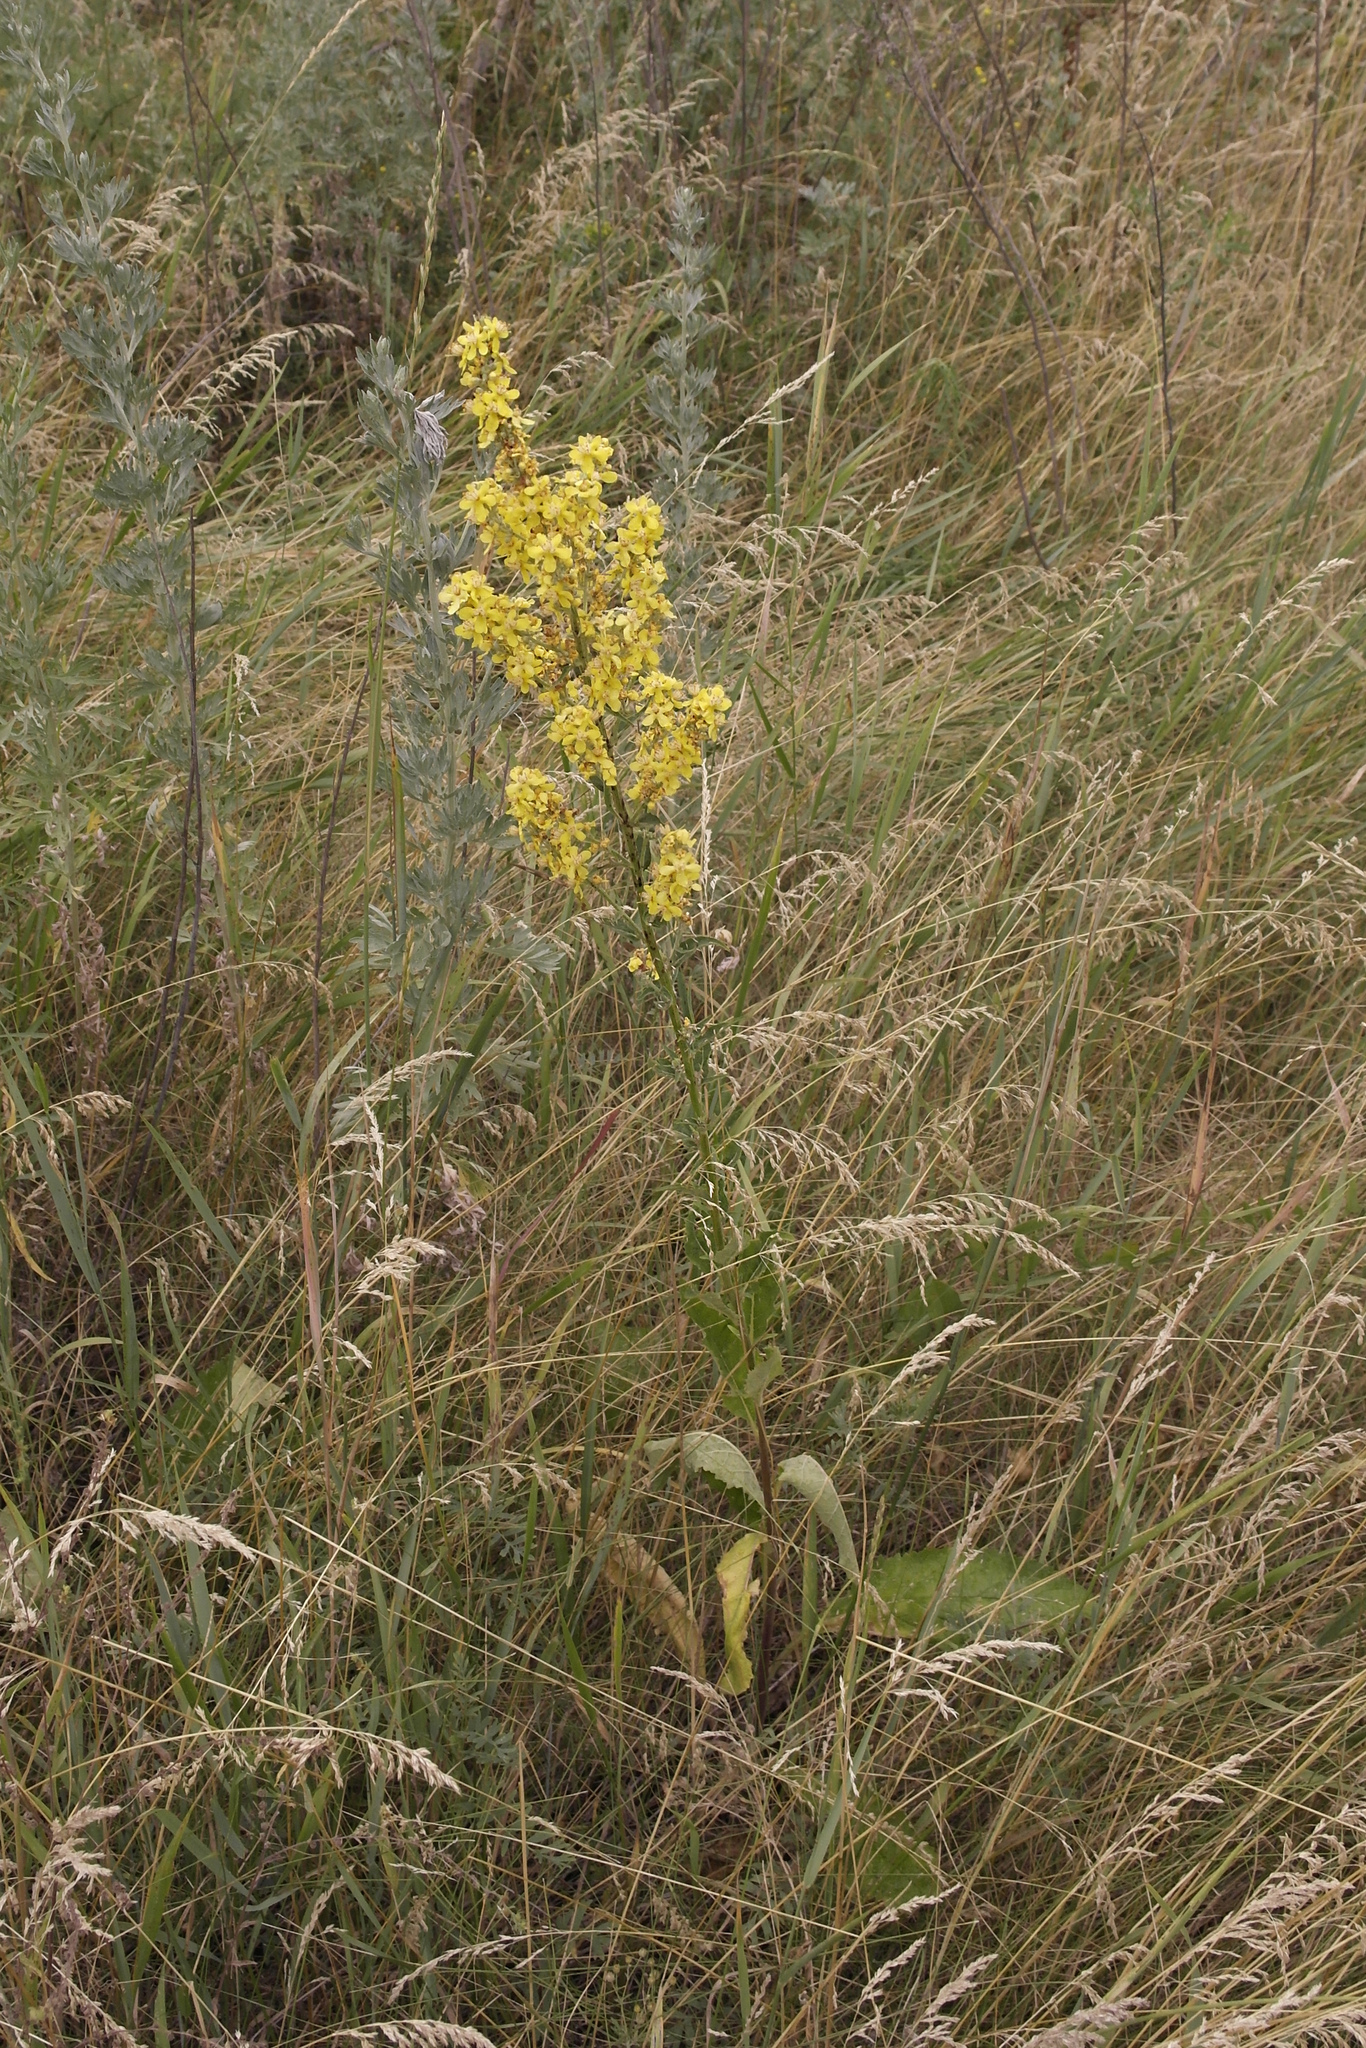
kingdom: Plantae
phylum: Tracheophyta
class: Magnoliopsida
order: Lamiales
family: Scrophulariaceae
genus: Verbascum
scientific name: Verbascum lychnitis
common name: White mullein
